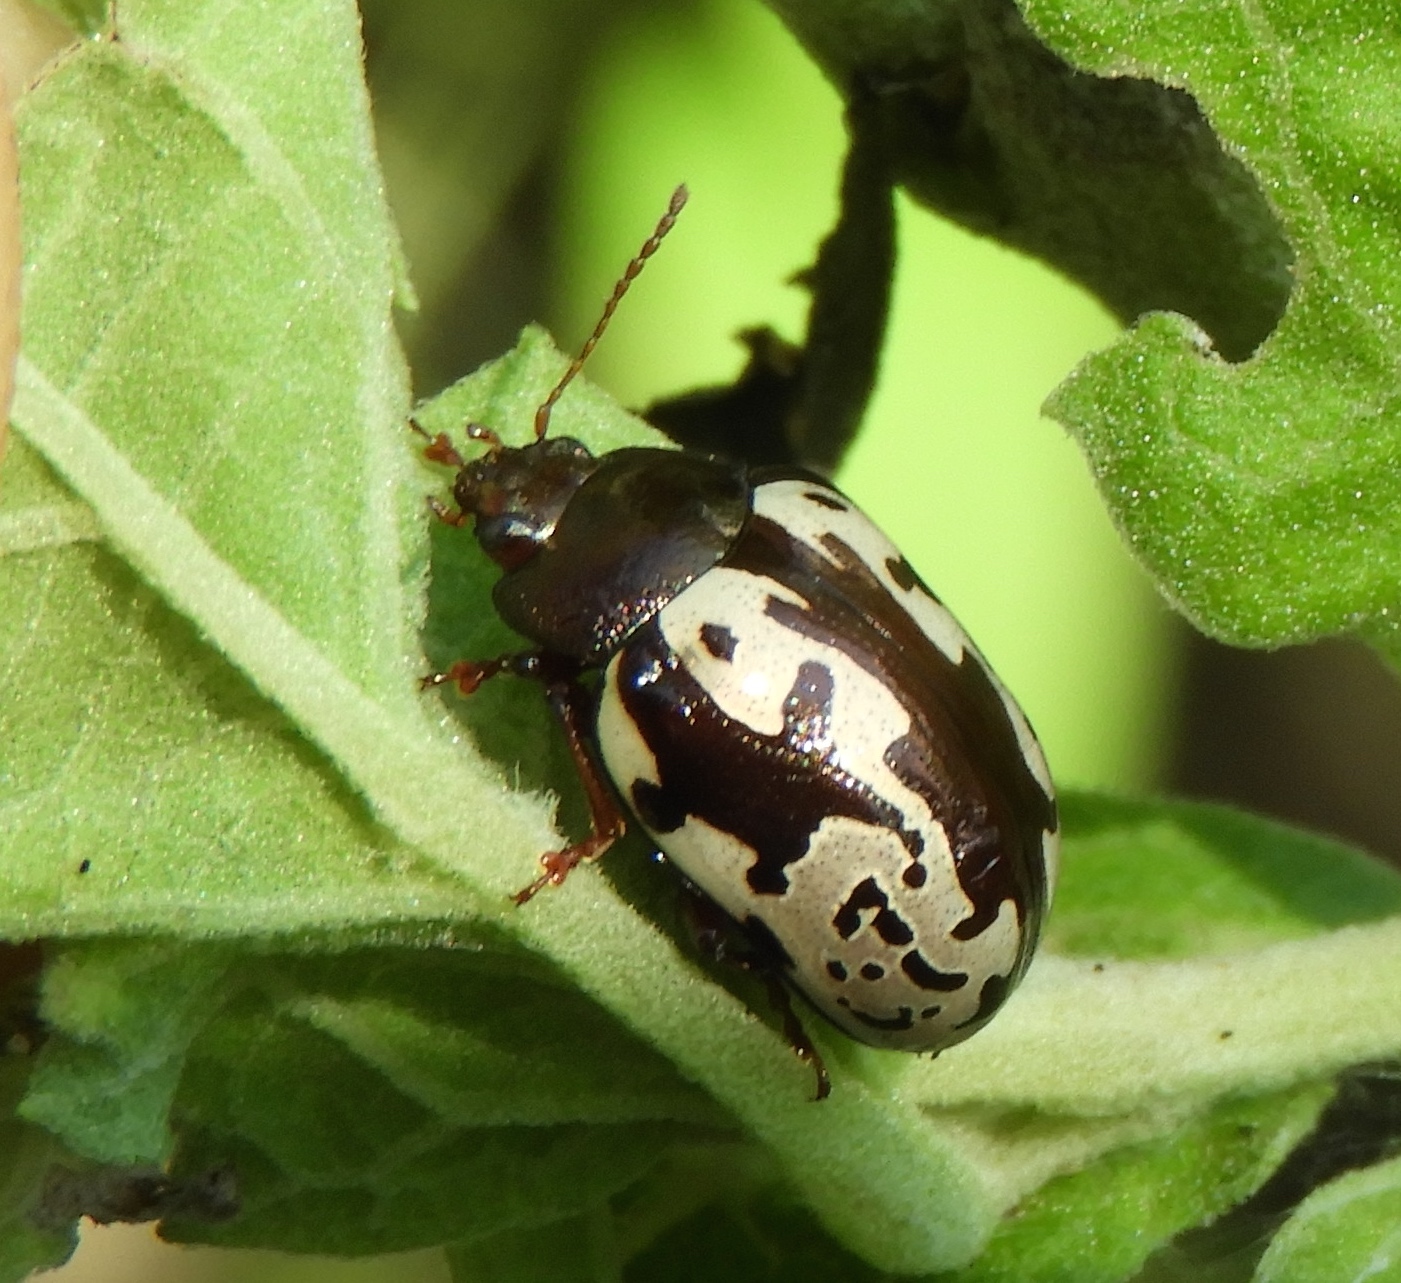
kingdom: Animalia
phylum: Arthropoda
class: Insecta
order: Coleoptera
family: Chrysomelidae
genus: Calligrapha
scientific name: Calligrapha intermedia
